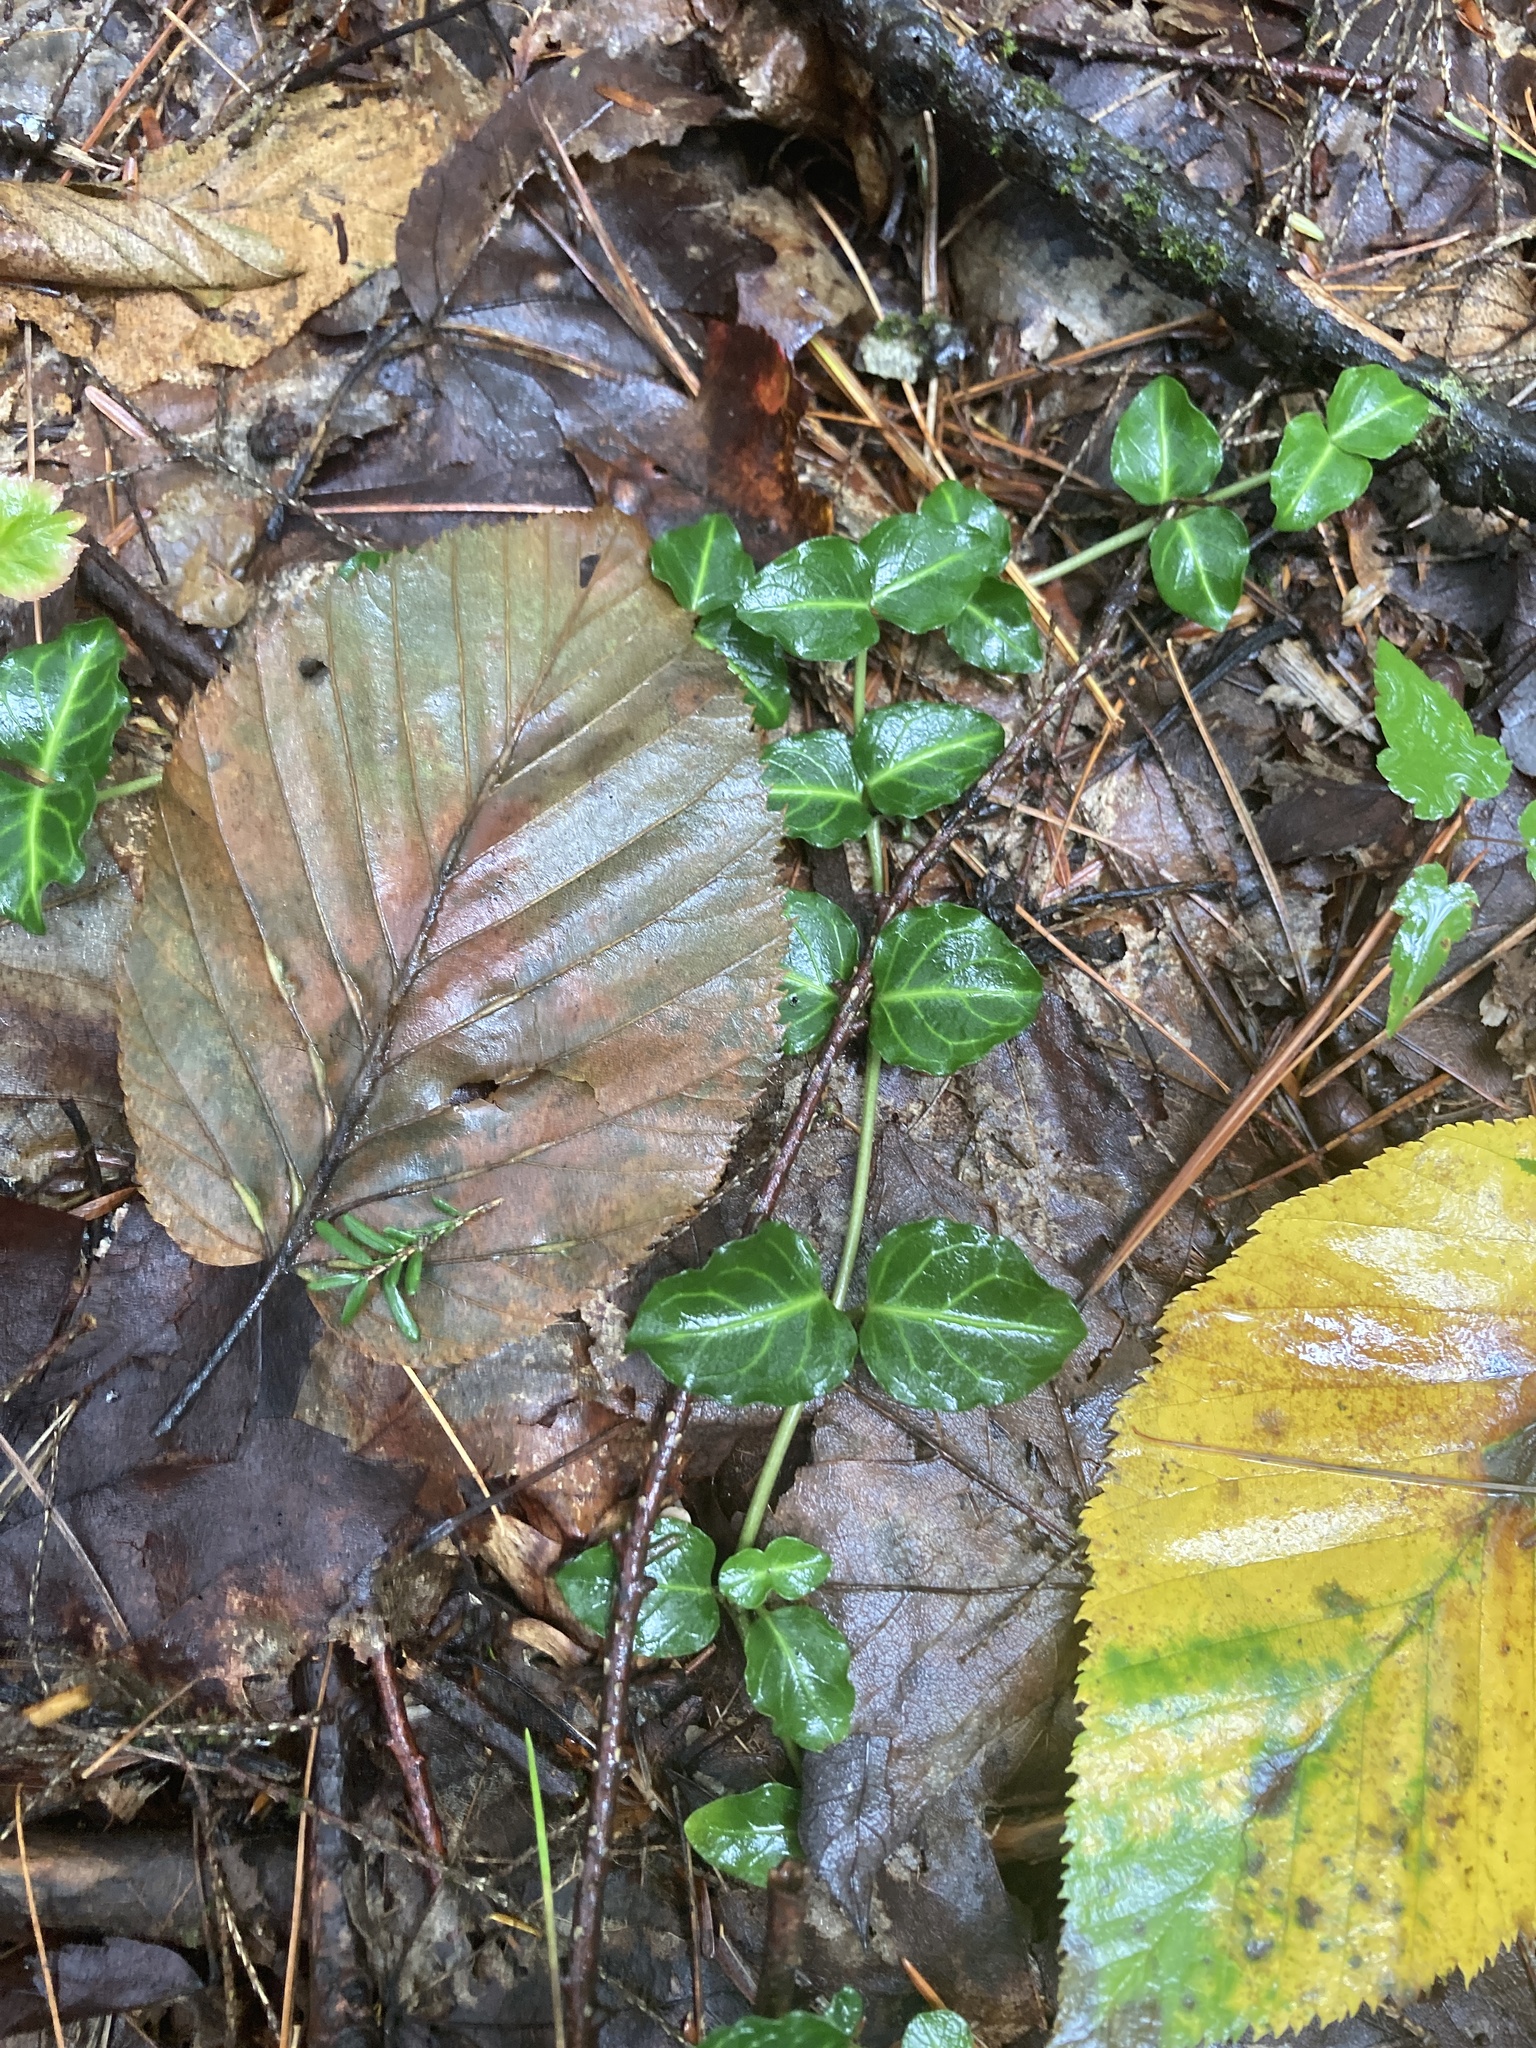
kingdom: Plantae
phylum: Tracheophyta
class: Magnoliopsida
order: Gentianales
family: Rubiaceae
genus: Mitchella
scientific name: Mitchella repens
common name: Partridge-berry
